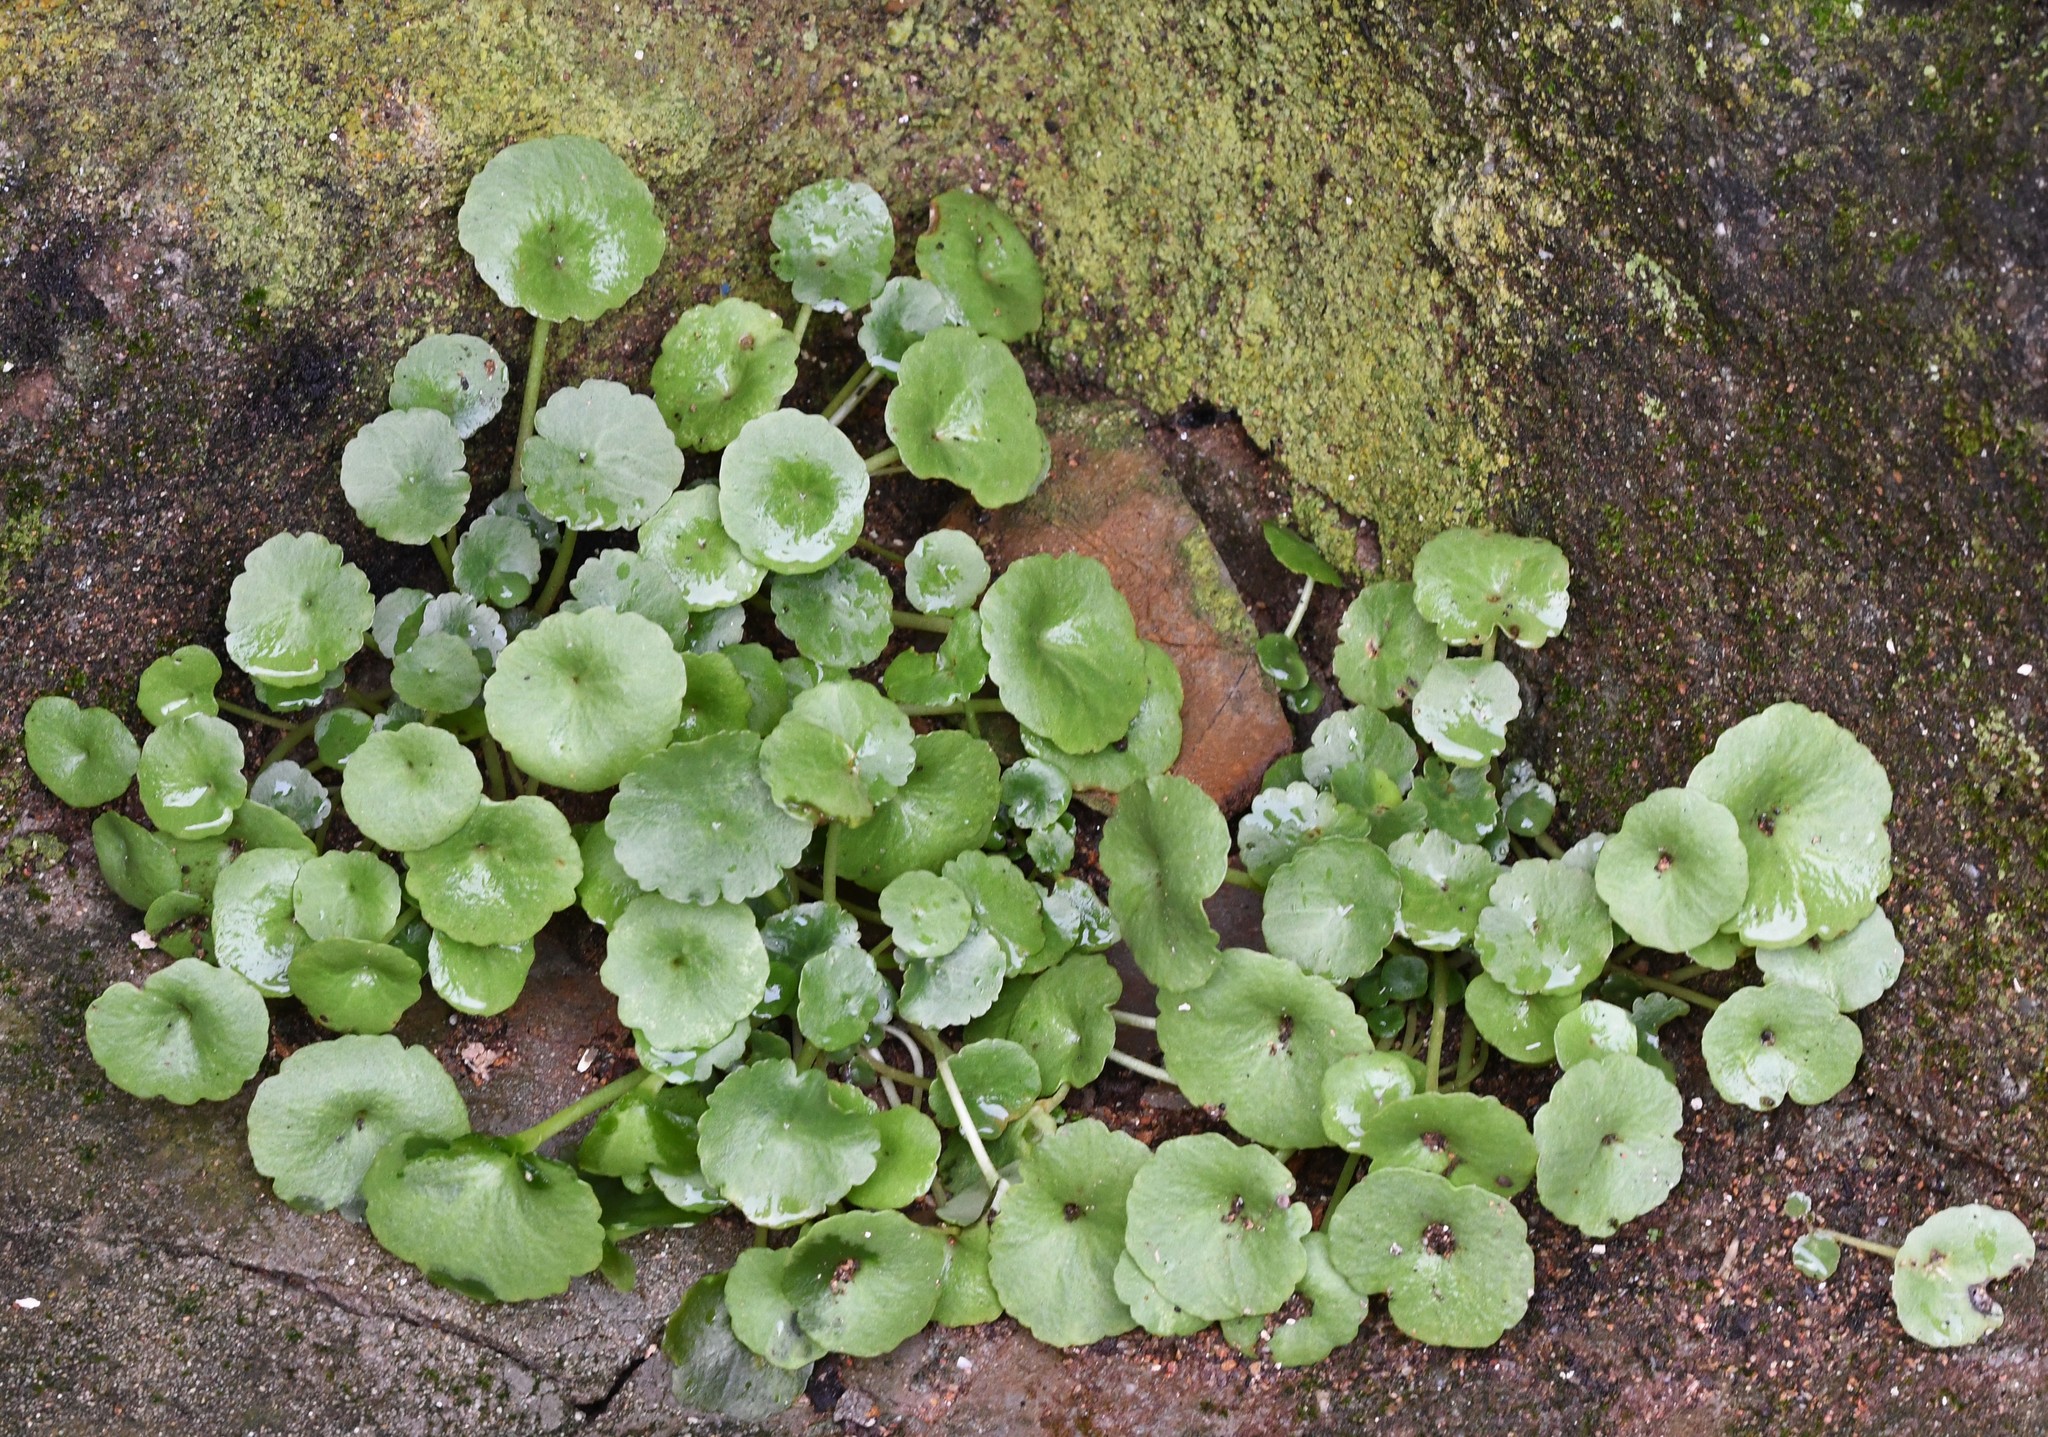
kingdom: Plantae
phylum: Tracheophyta
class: Magnoliopsida
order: Saxifragales
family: Crassulaceae
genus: Umbilicus
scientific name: Umbilicus rupestris
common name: Navelwort
